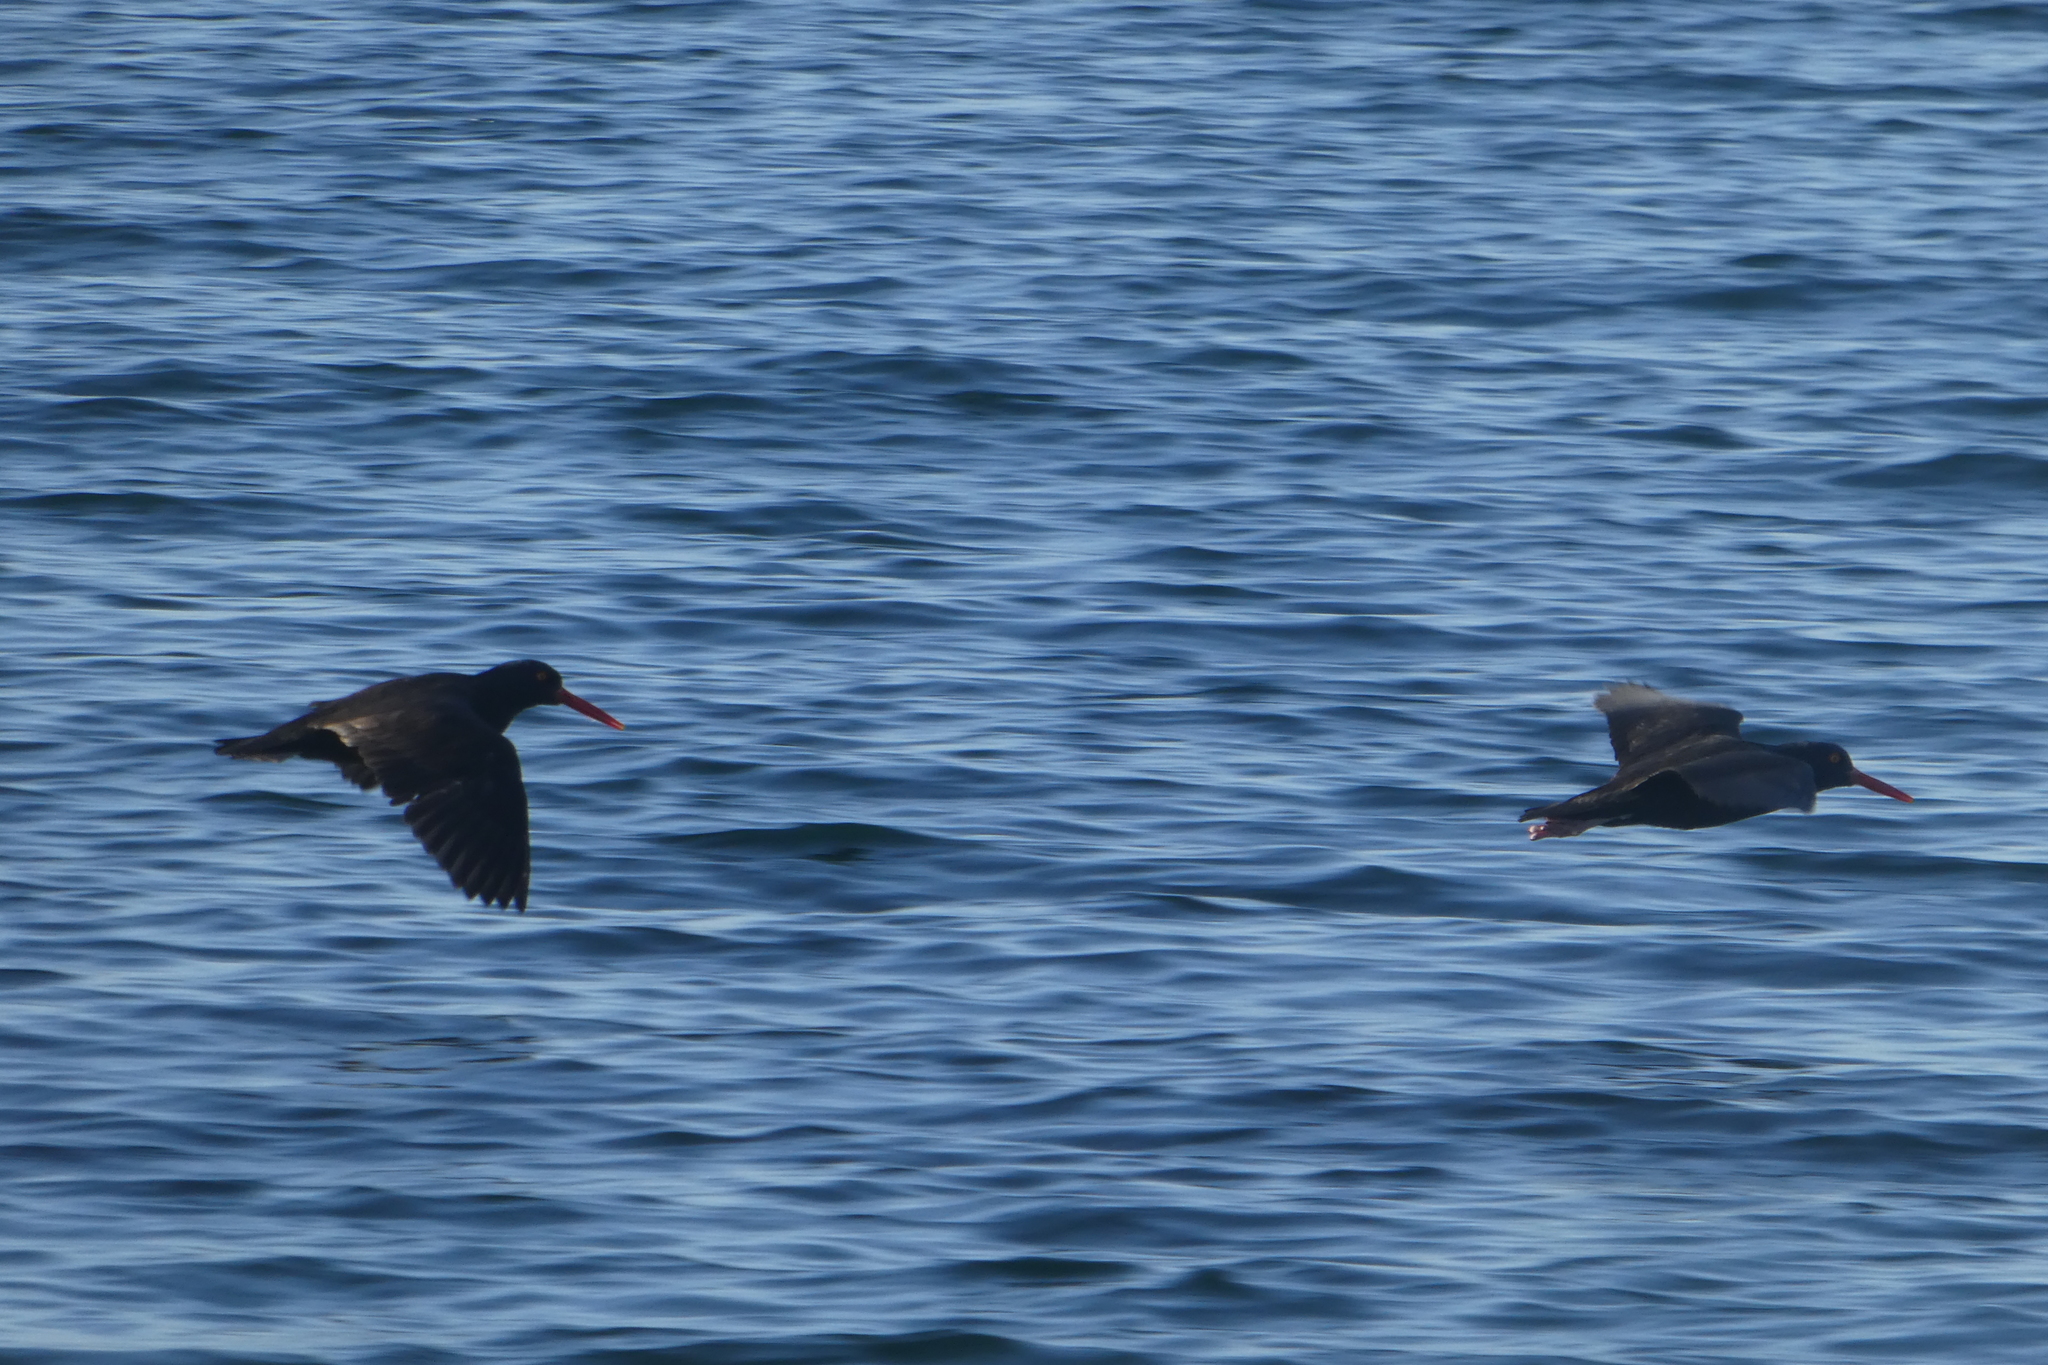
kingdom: Animalia
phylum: Chordata
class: Aves
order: Charadriiformes
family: Haematopodidae
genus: Haematopus
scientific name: Haematopus bachmani
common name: Black oystercatcher
